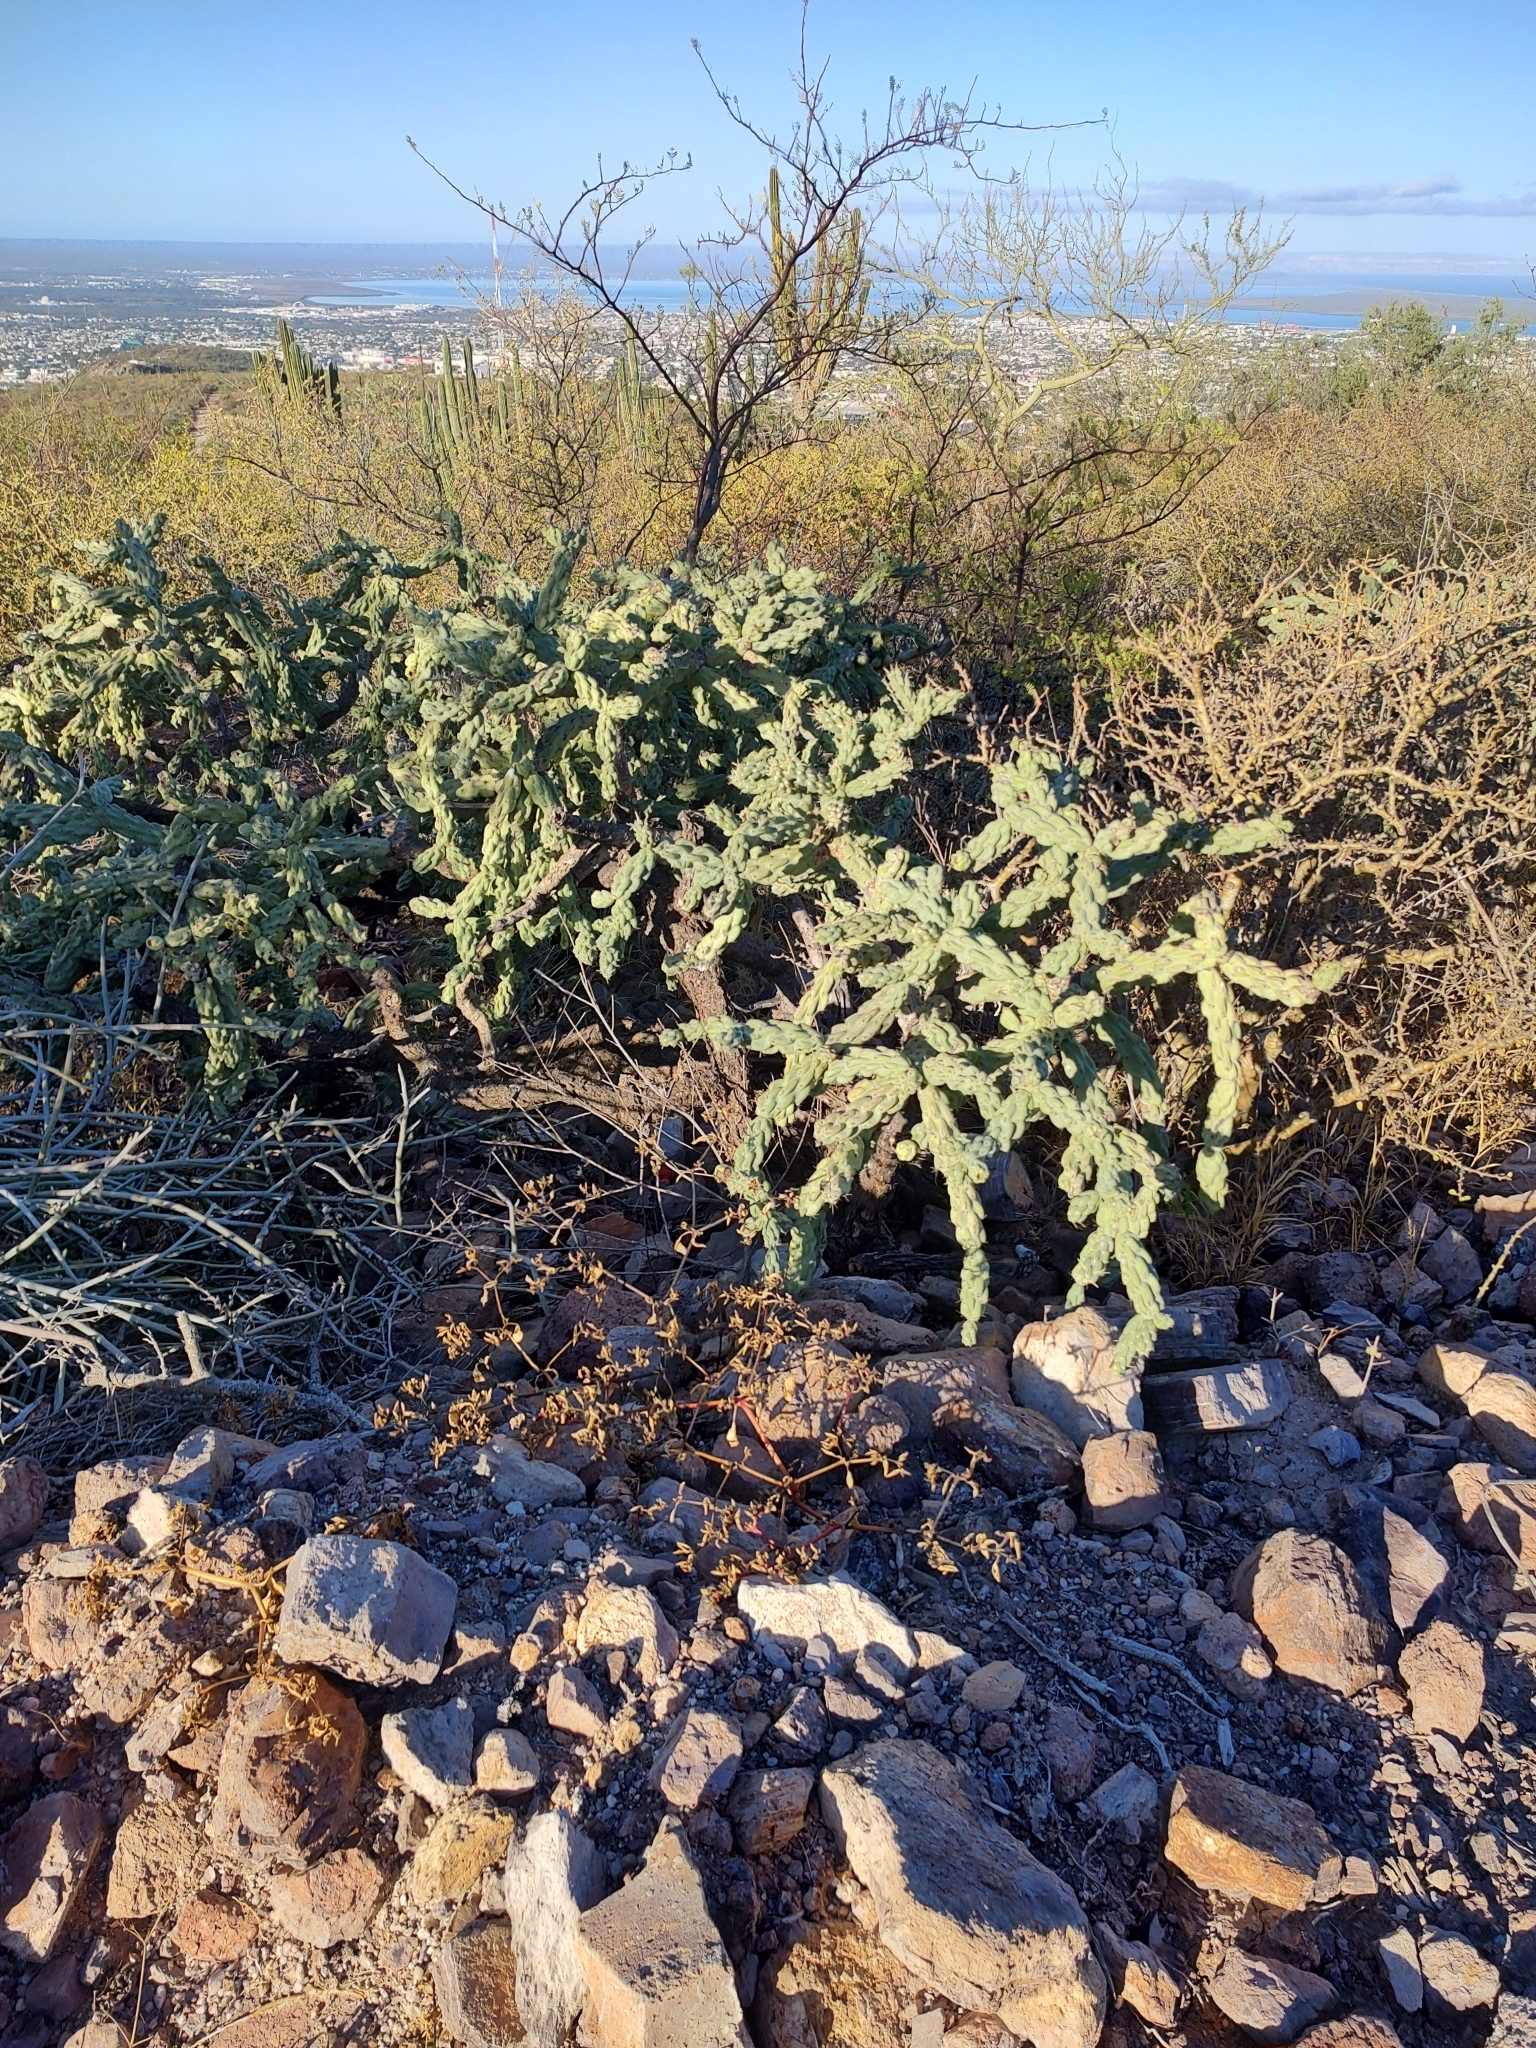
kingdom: Plantae
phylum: Tracheophyta
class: Magnoliopsida
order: Caryophyllales
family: Cactaceae
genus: Cylindropuntia
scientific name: Cylindropuntia cholla
